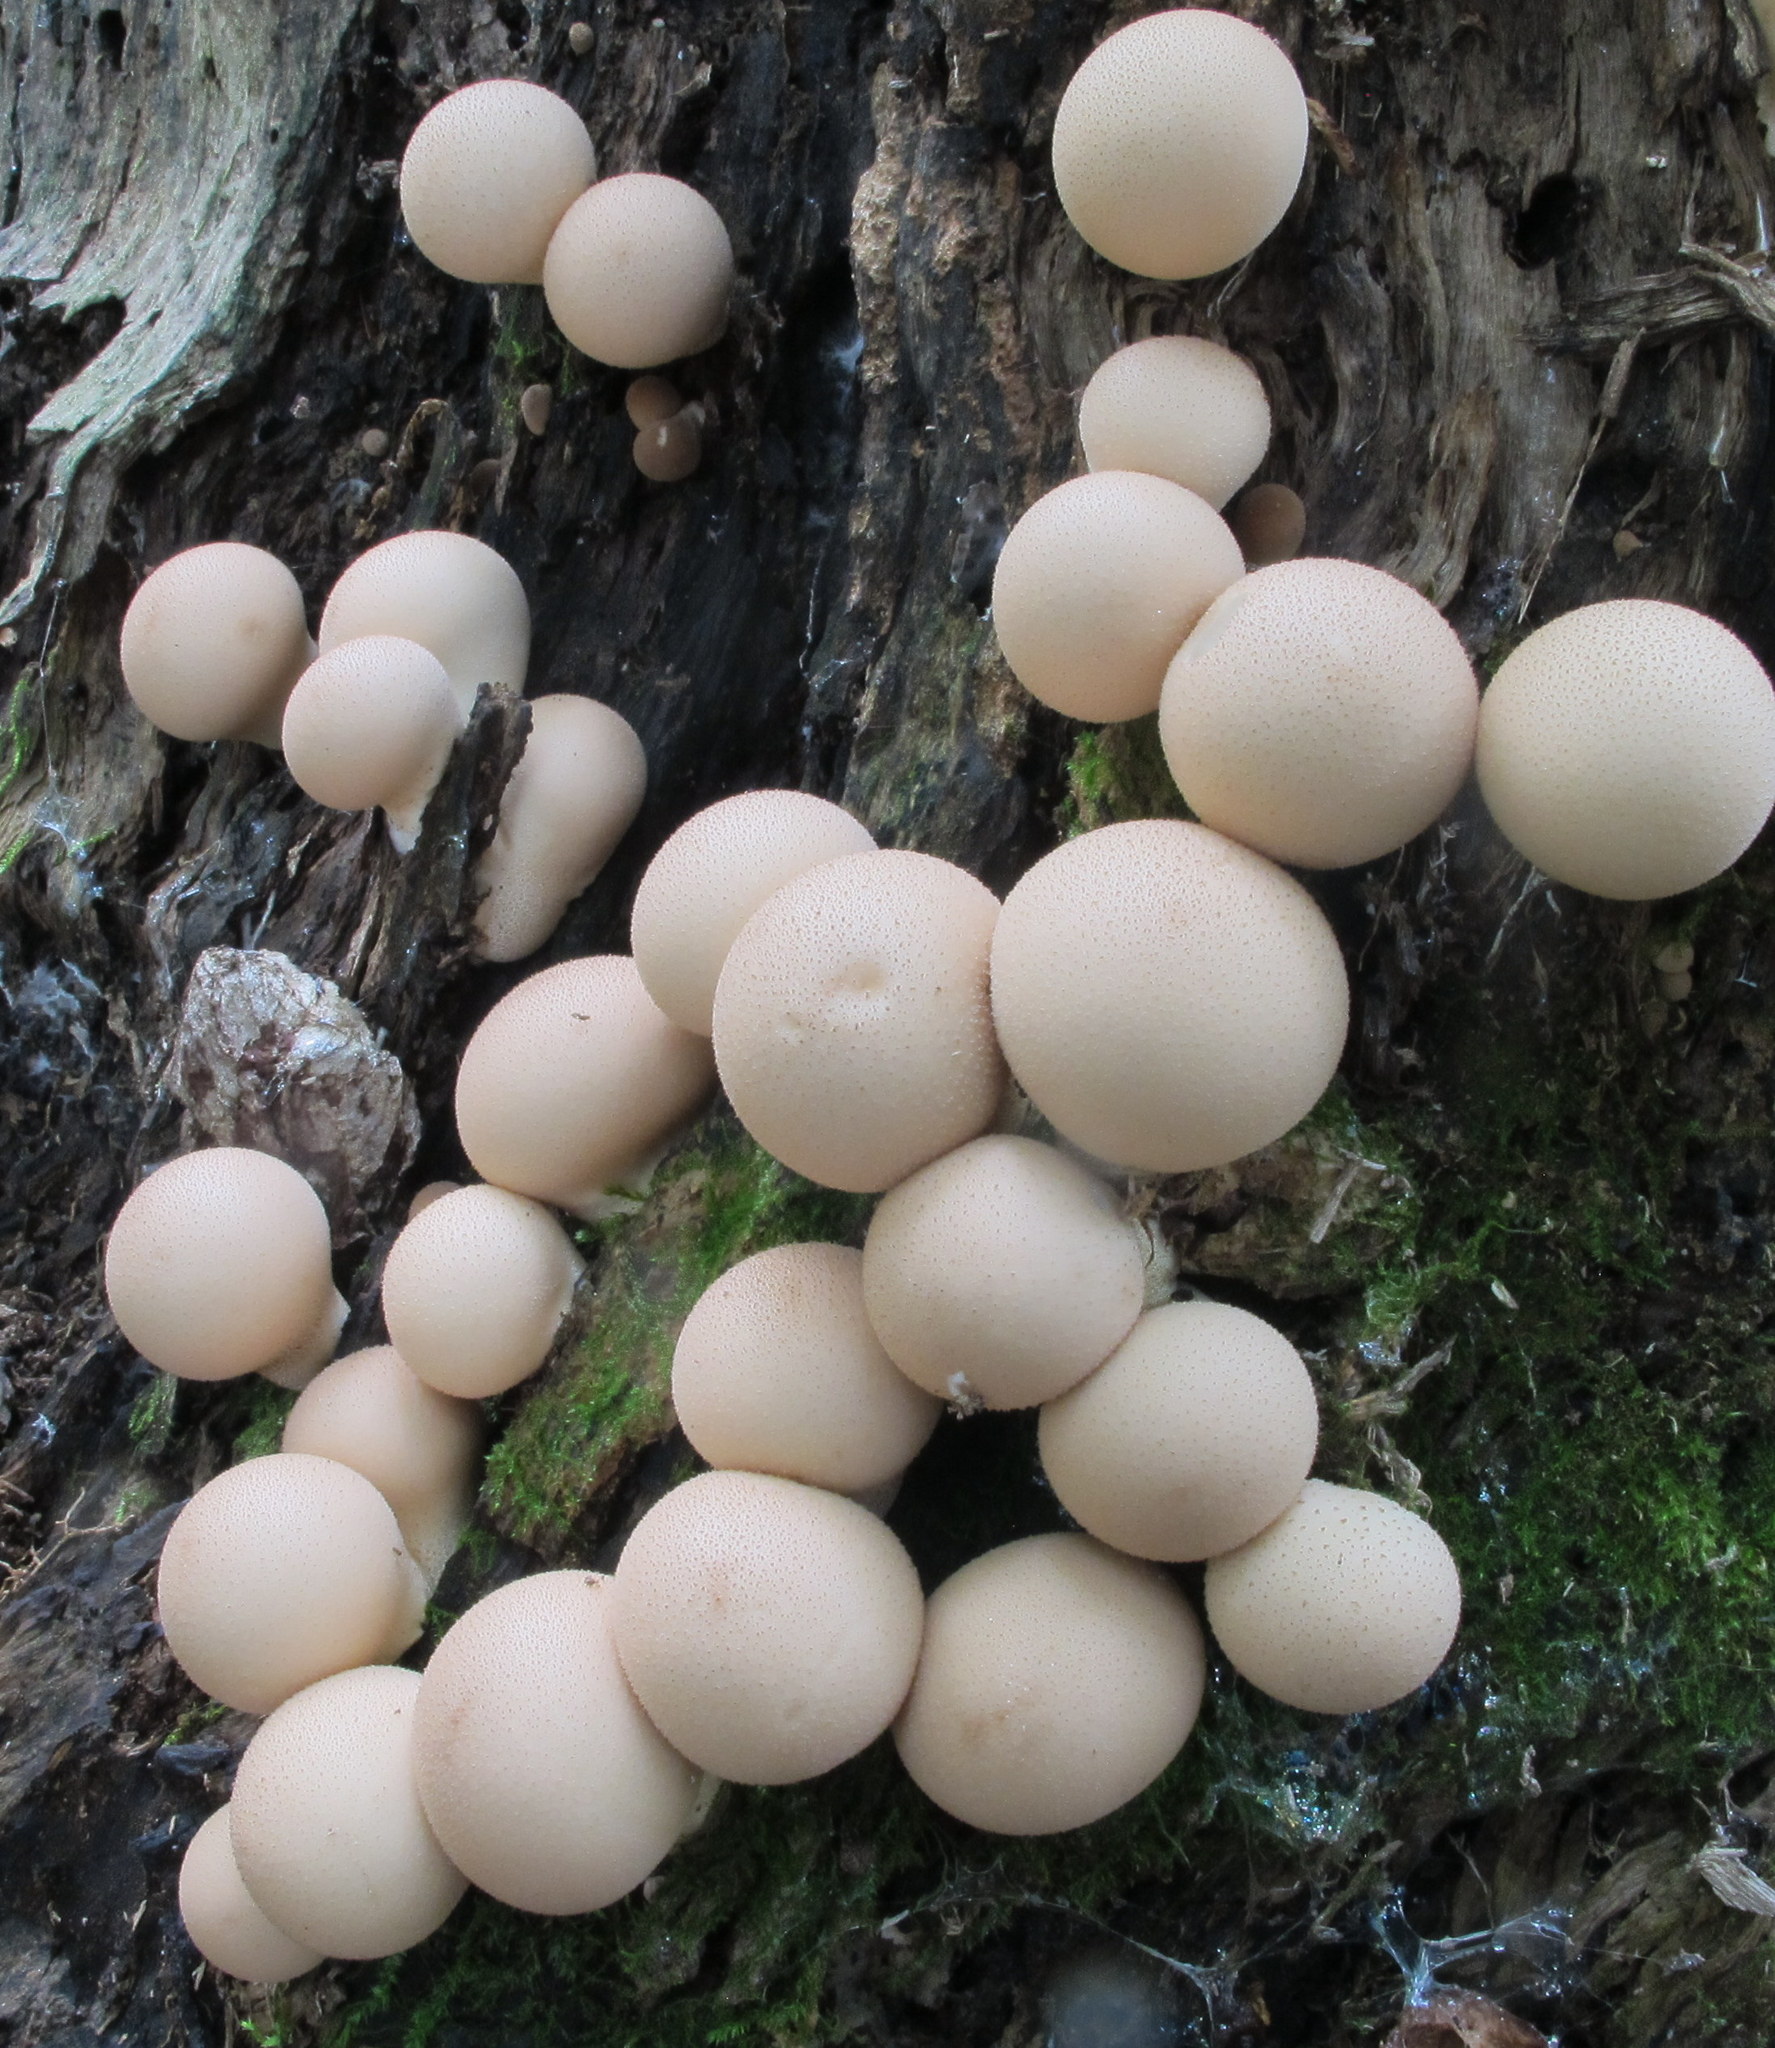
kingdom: Fungi
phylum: Basidiomycota
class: Agaricomycetes
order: Agaricales
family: Lycoperdaceae
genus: Apioperdon
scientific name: Apioperdon pyriforme
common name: Pear-shaped puffball
